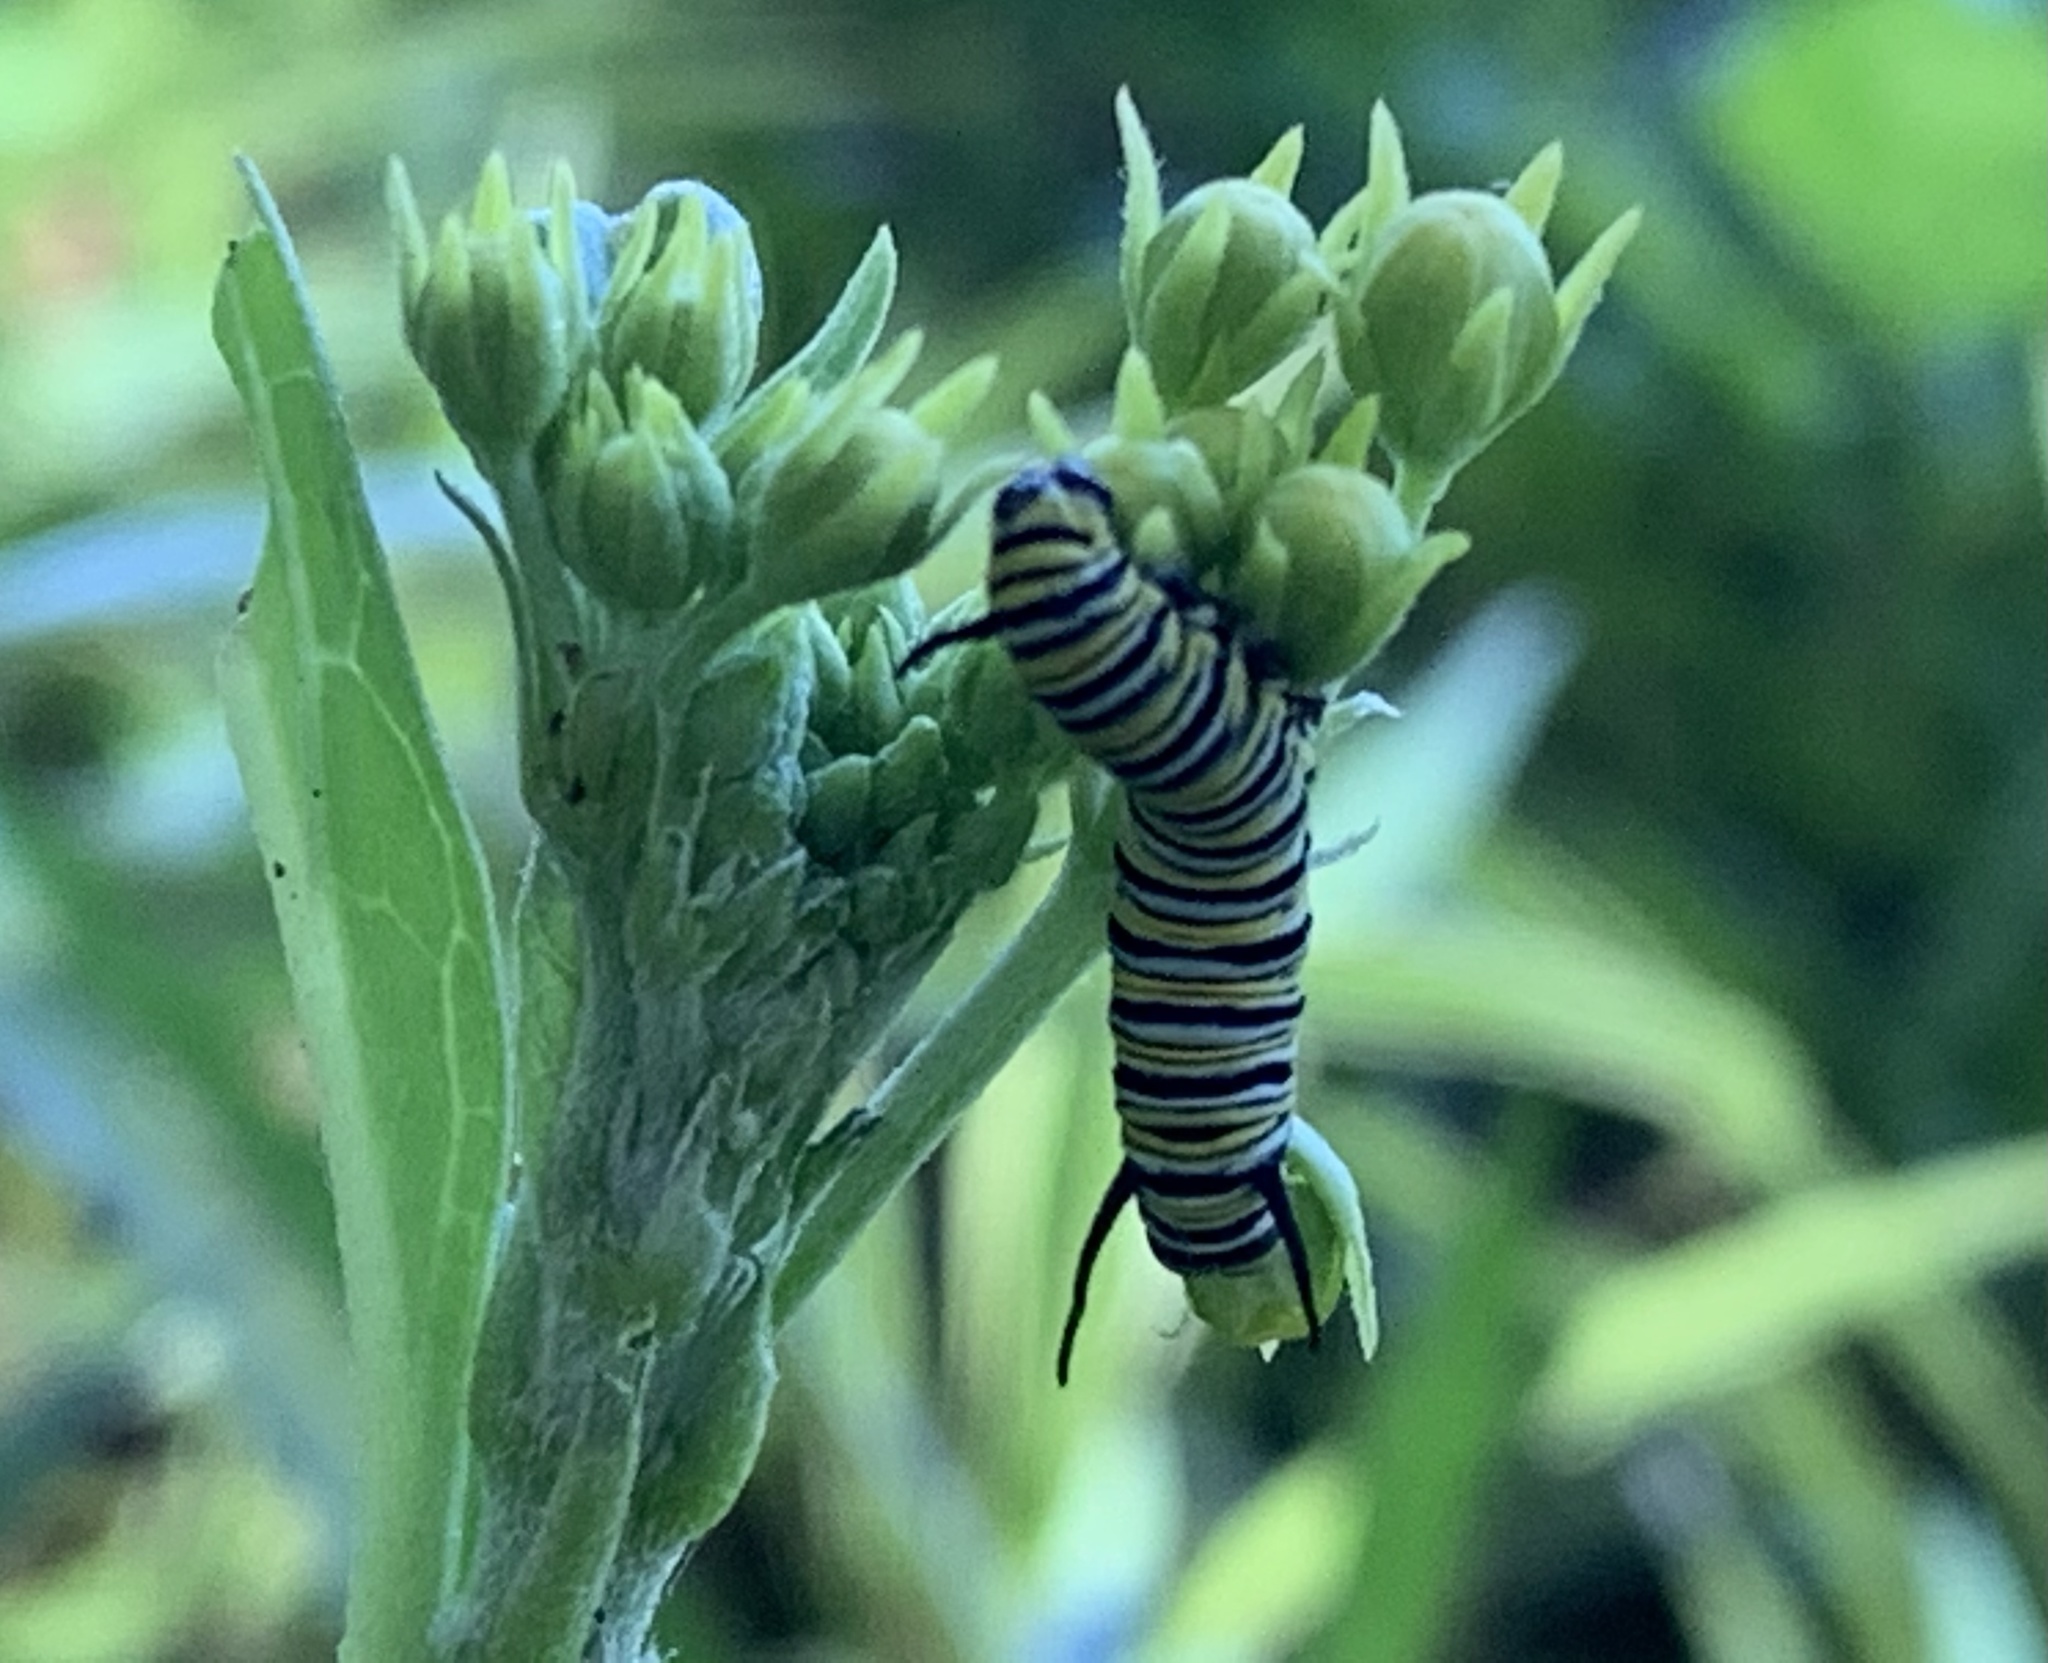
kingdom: Animalia
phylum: Arthropoda
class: Insecta
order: Lepidoptera
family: Nymphalidae
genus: Danaus
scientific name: Danaus plexippus
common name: Monarch
